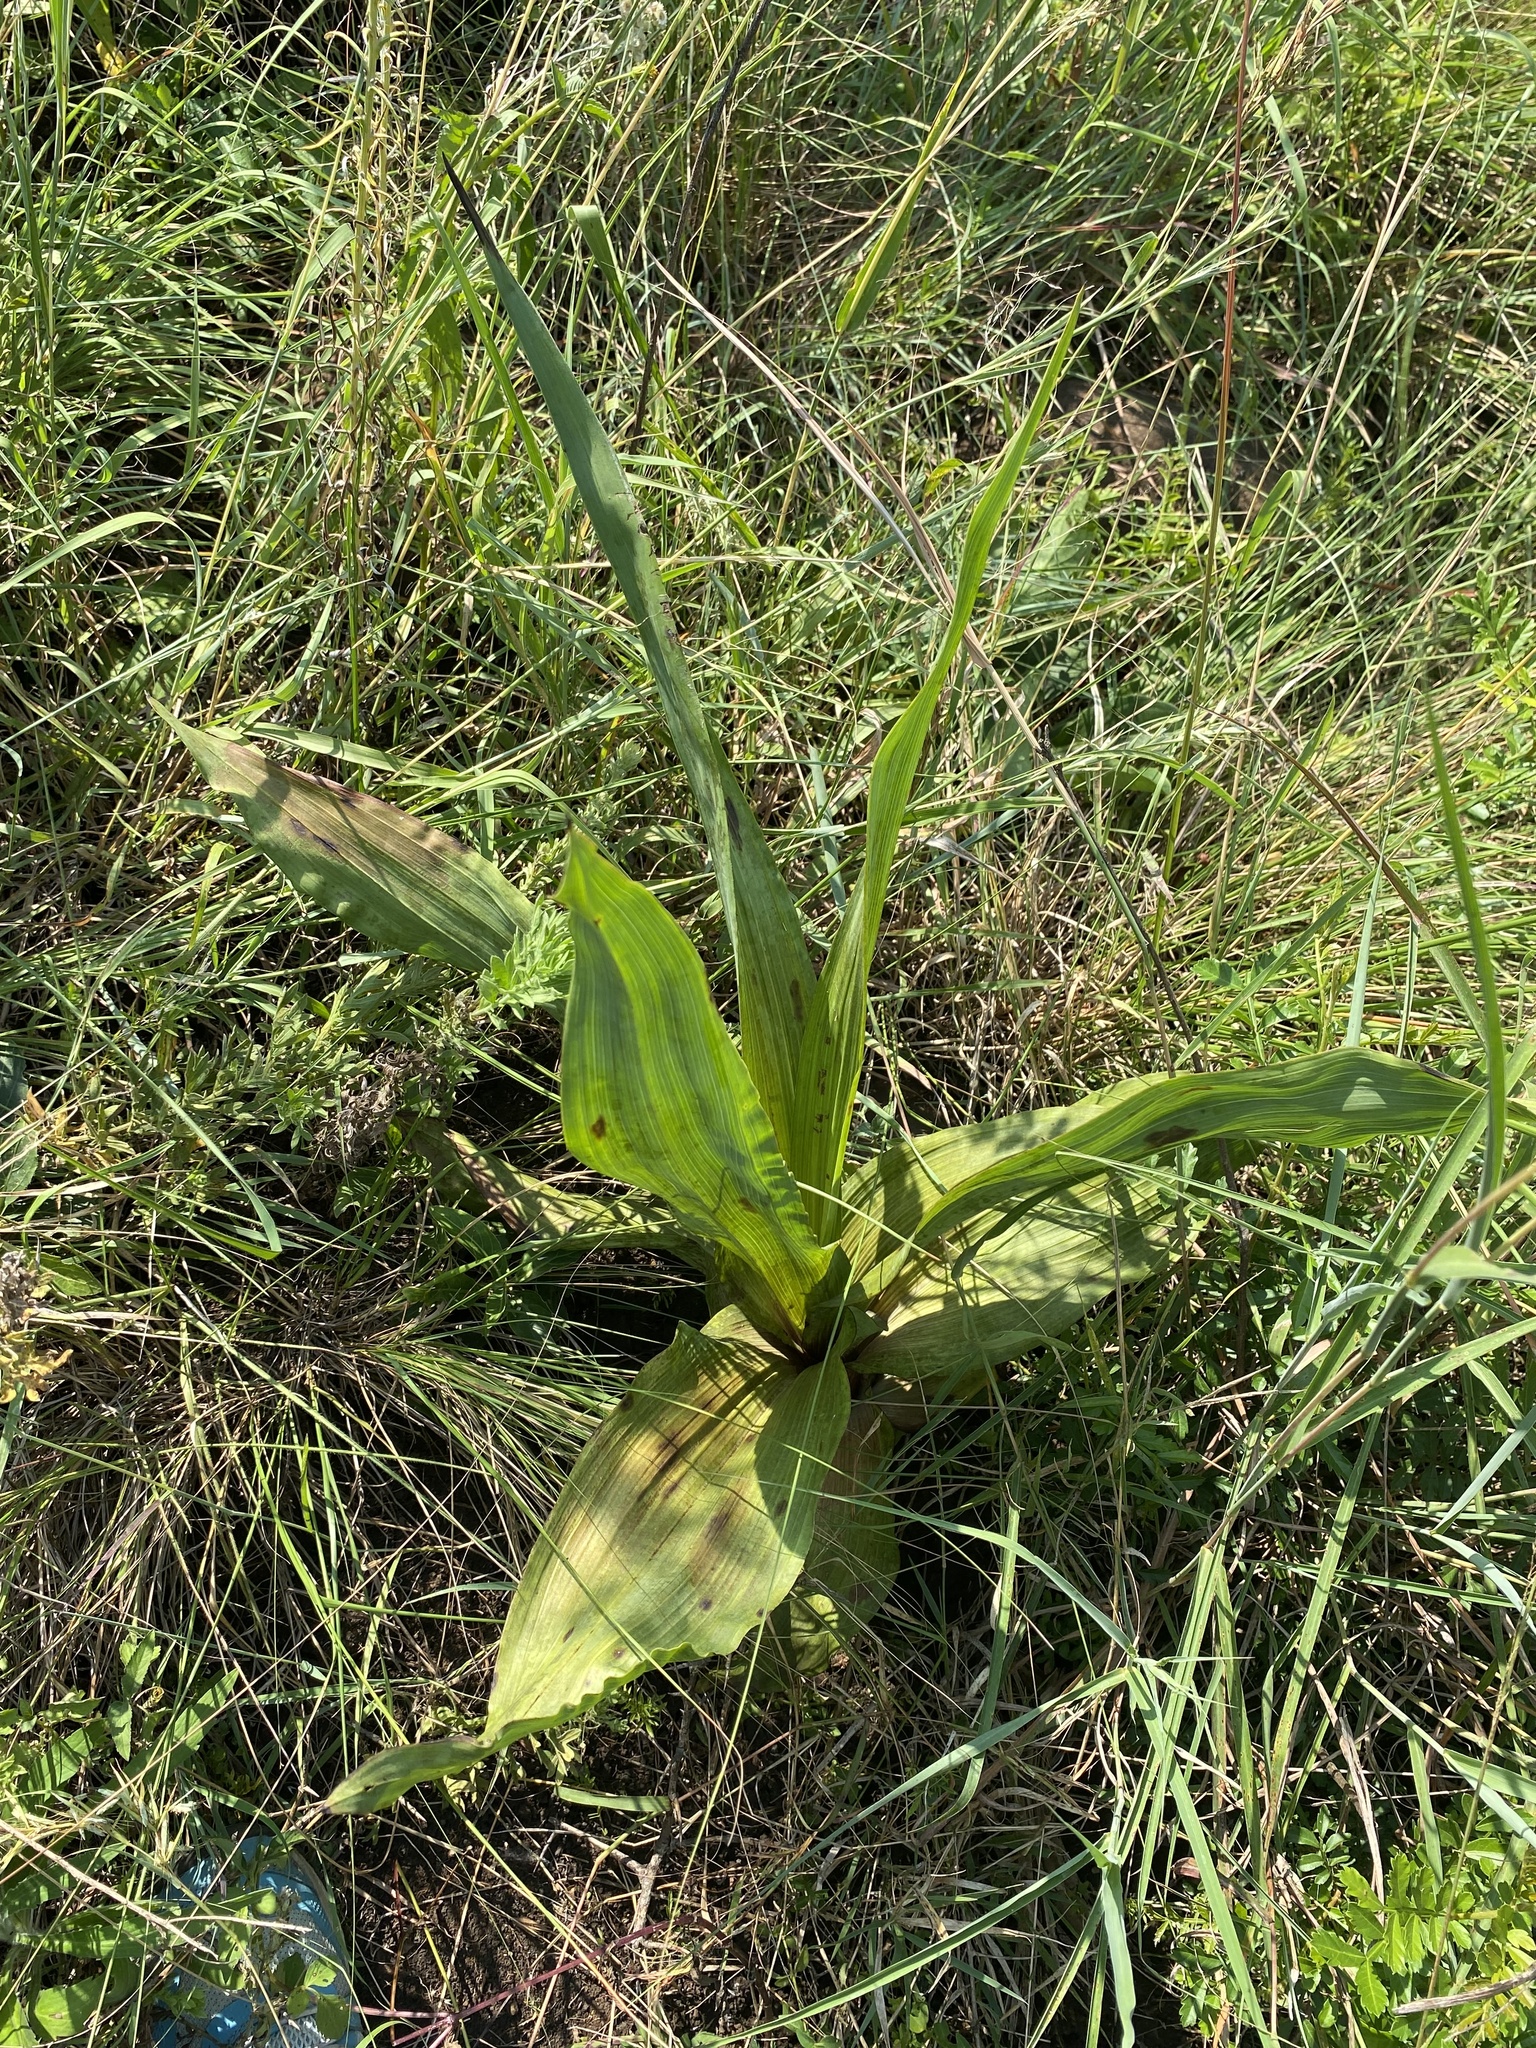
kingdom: Plantae
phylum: Tracheophyta
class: Liliopsida
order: Asparagales
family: Hypoxidaceae
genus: Hypoxis
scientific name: Hypoxis colchicifolia
